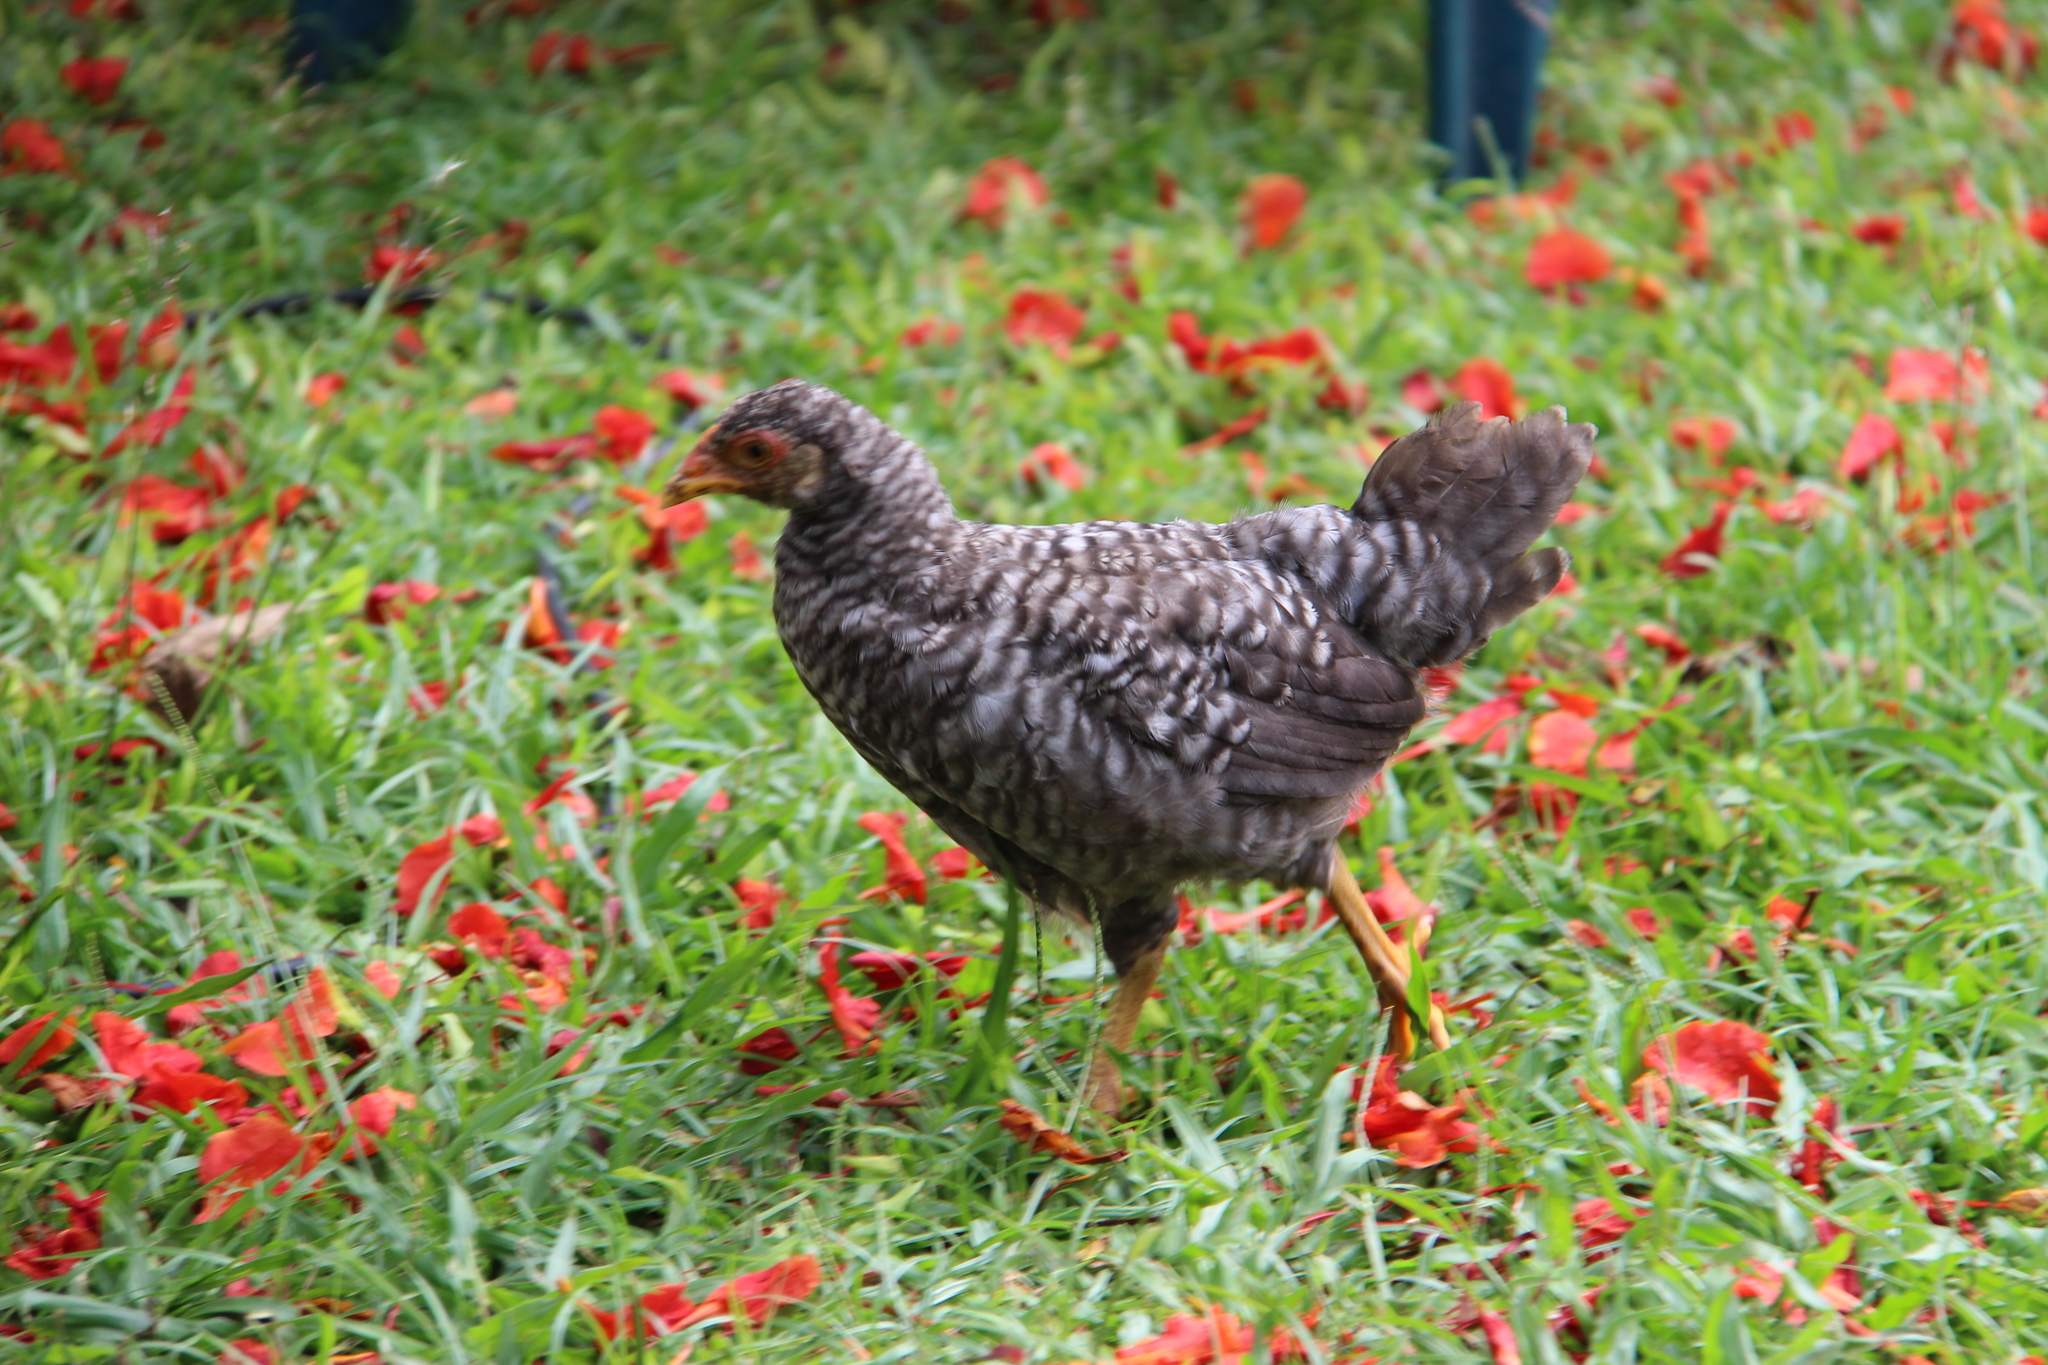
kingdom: Animalia
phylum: Chordata
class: Aves
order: Galliformes
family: Phasianidae
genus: Gallus
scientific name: Gallus gallus
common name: Red junglefowl
